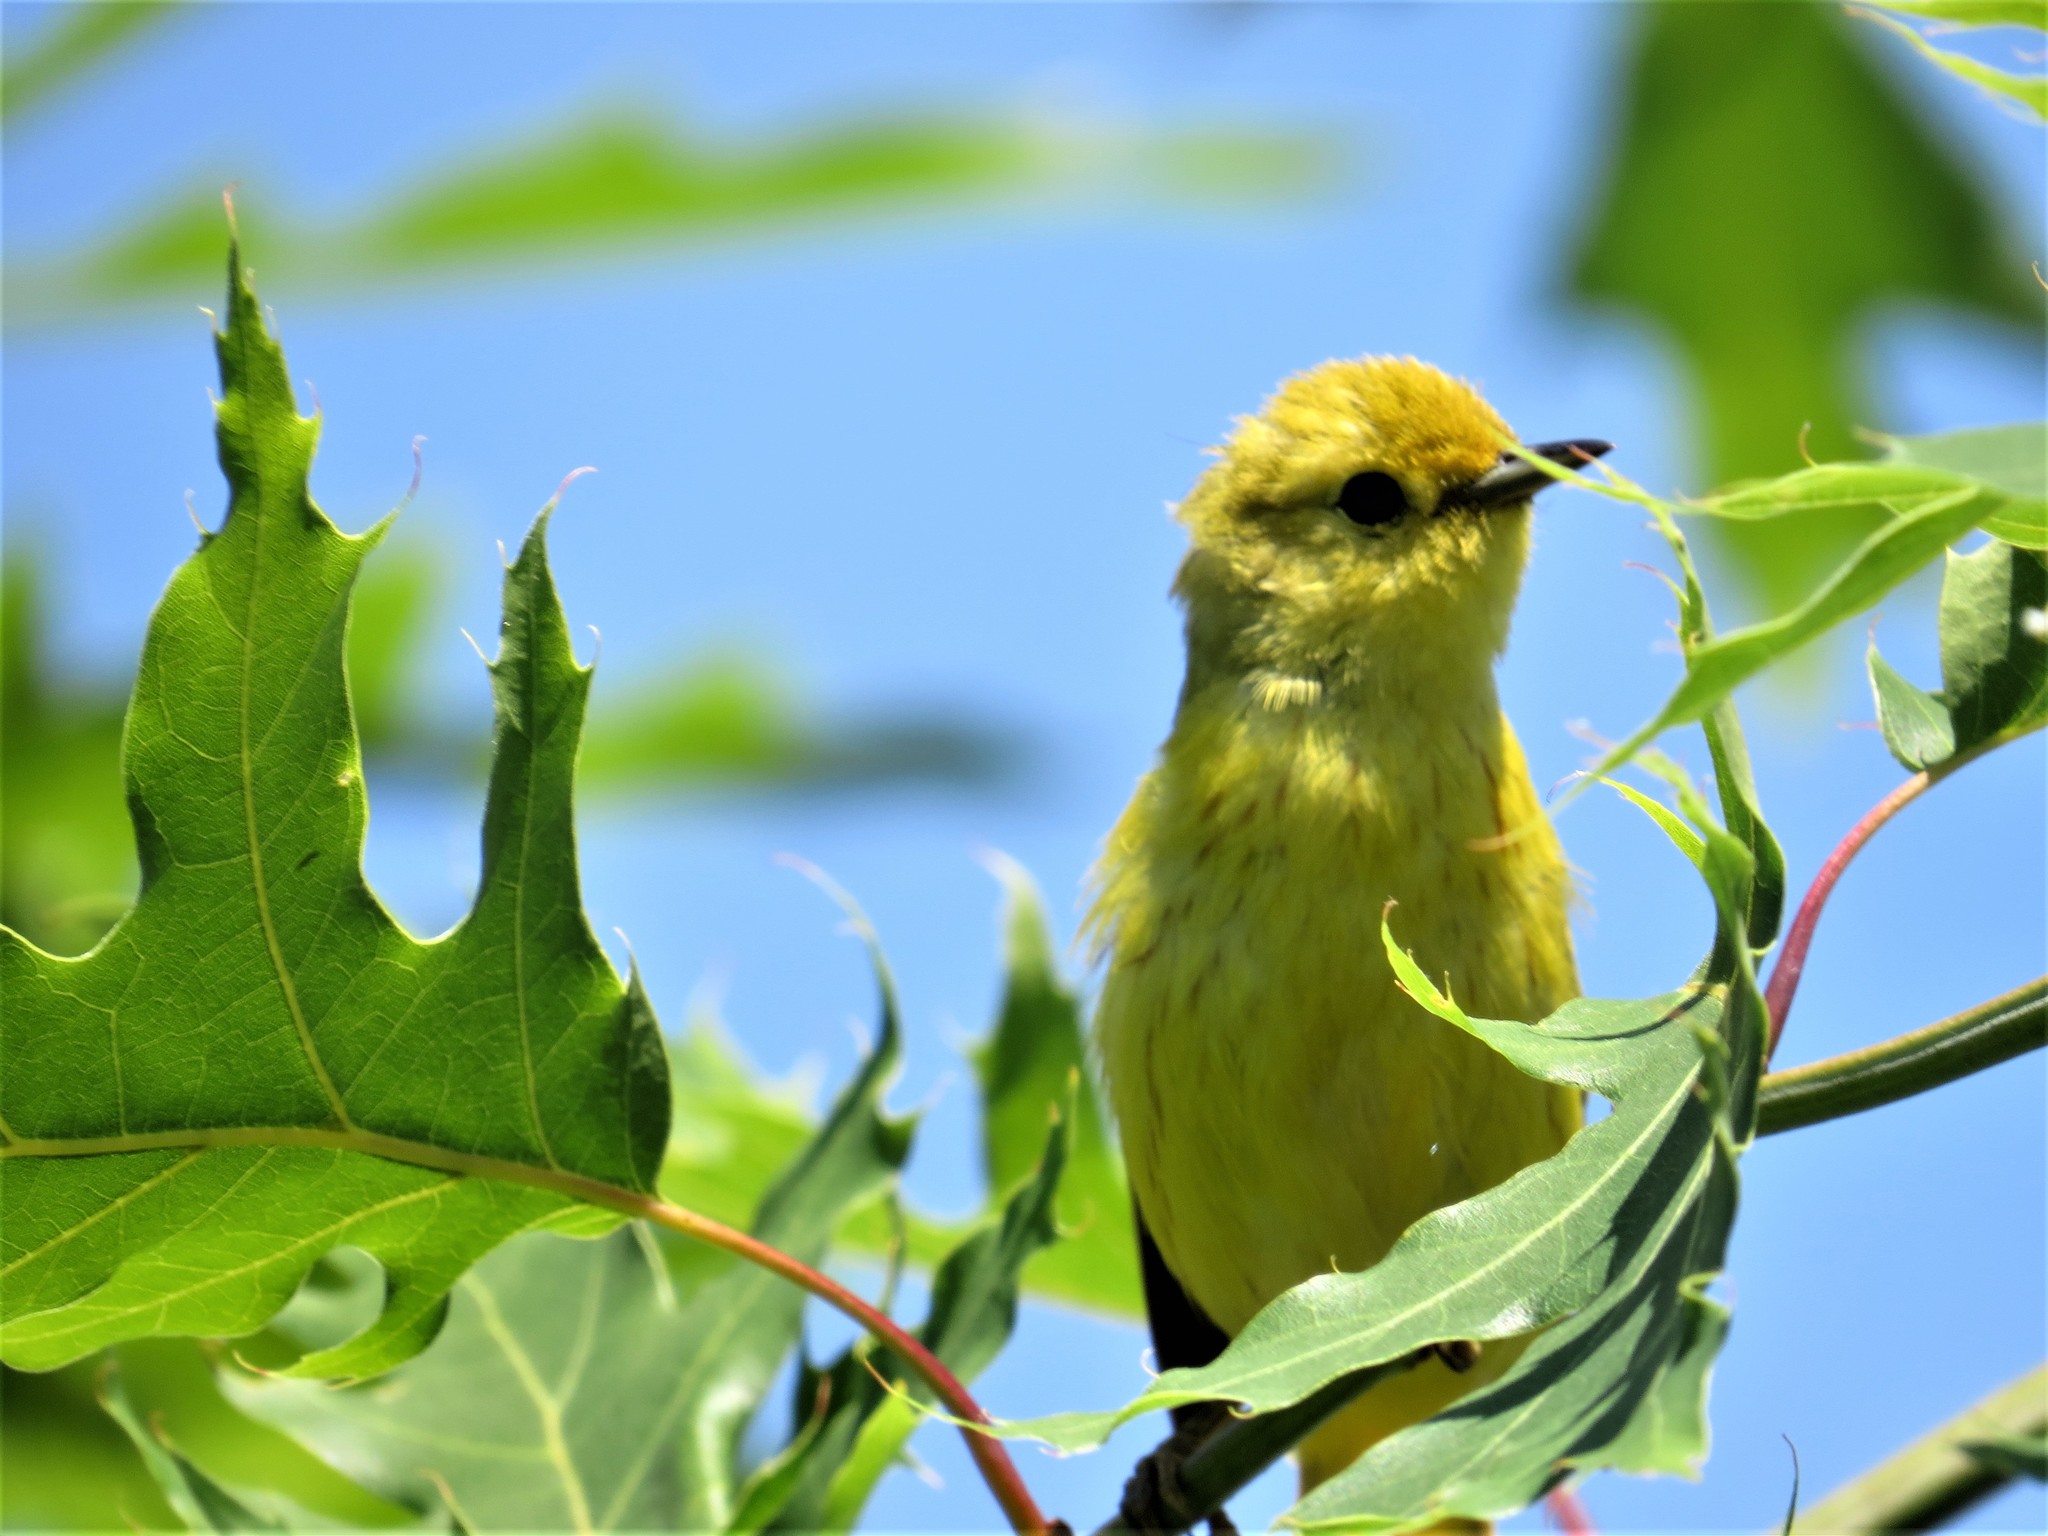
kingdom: Animalia
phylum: Chordata
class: Aves
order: Passeriformes
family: Parulidae
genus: Setophaga
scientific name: Setophaga petechia
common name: Yellow warbler
